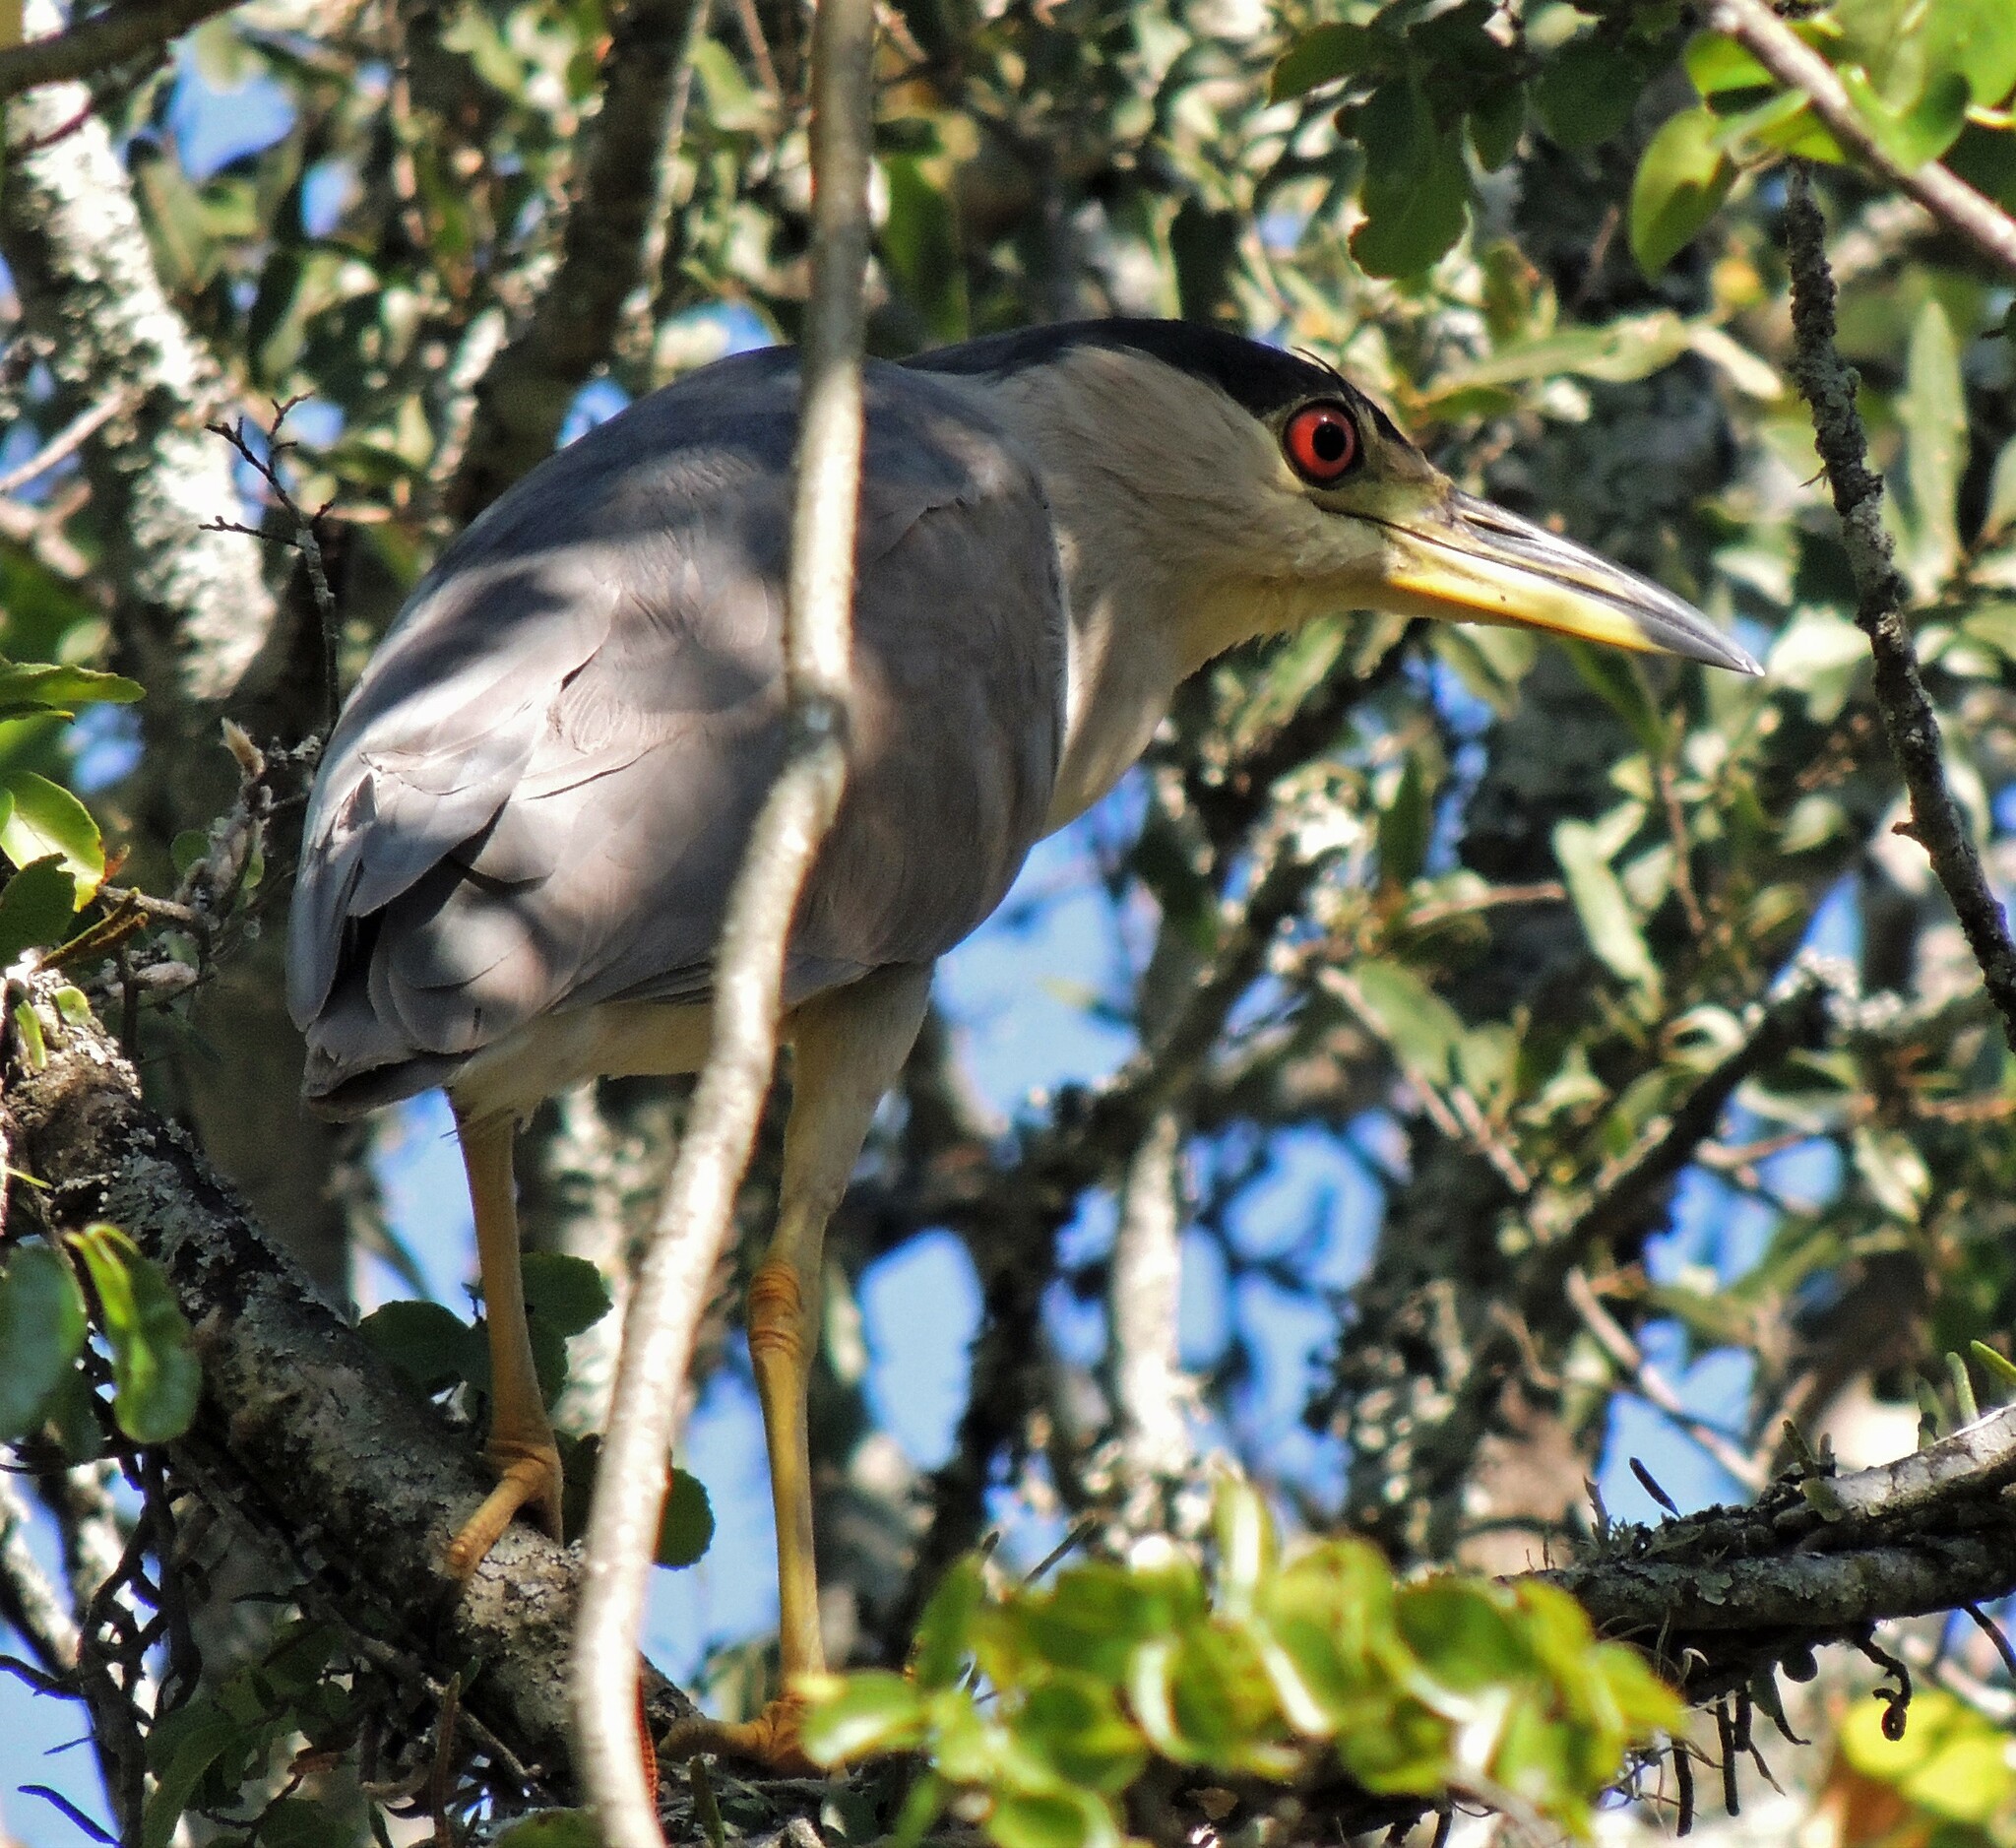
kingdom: Animalia
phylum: Chordata
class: Aves
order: Pelecaniformes
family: Ardeidae
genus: Nycticorax
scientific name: Nycticorax nycticorax
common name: Black-crowned night heron
